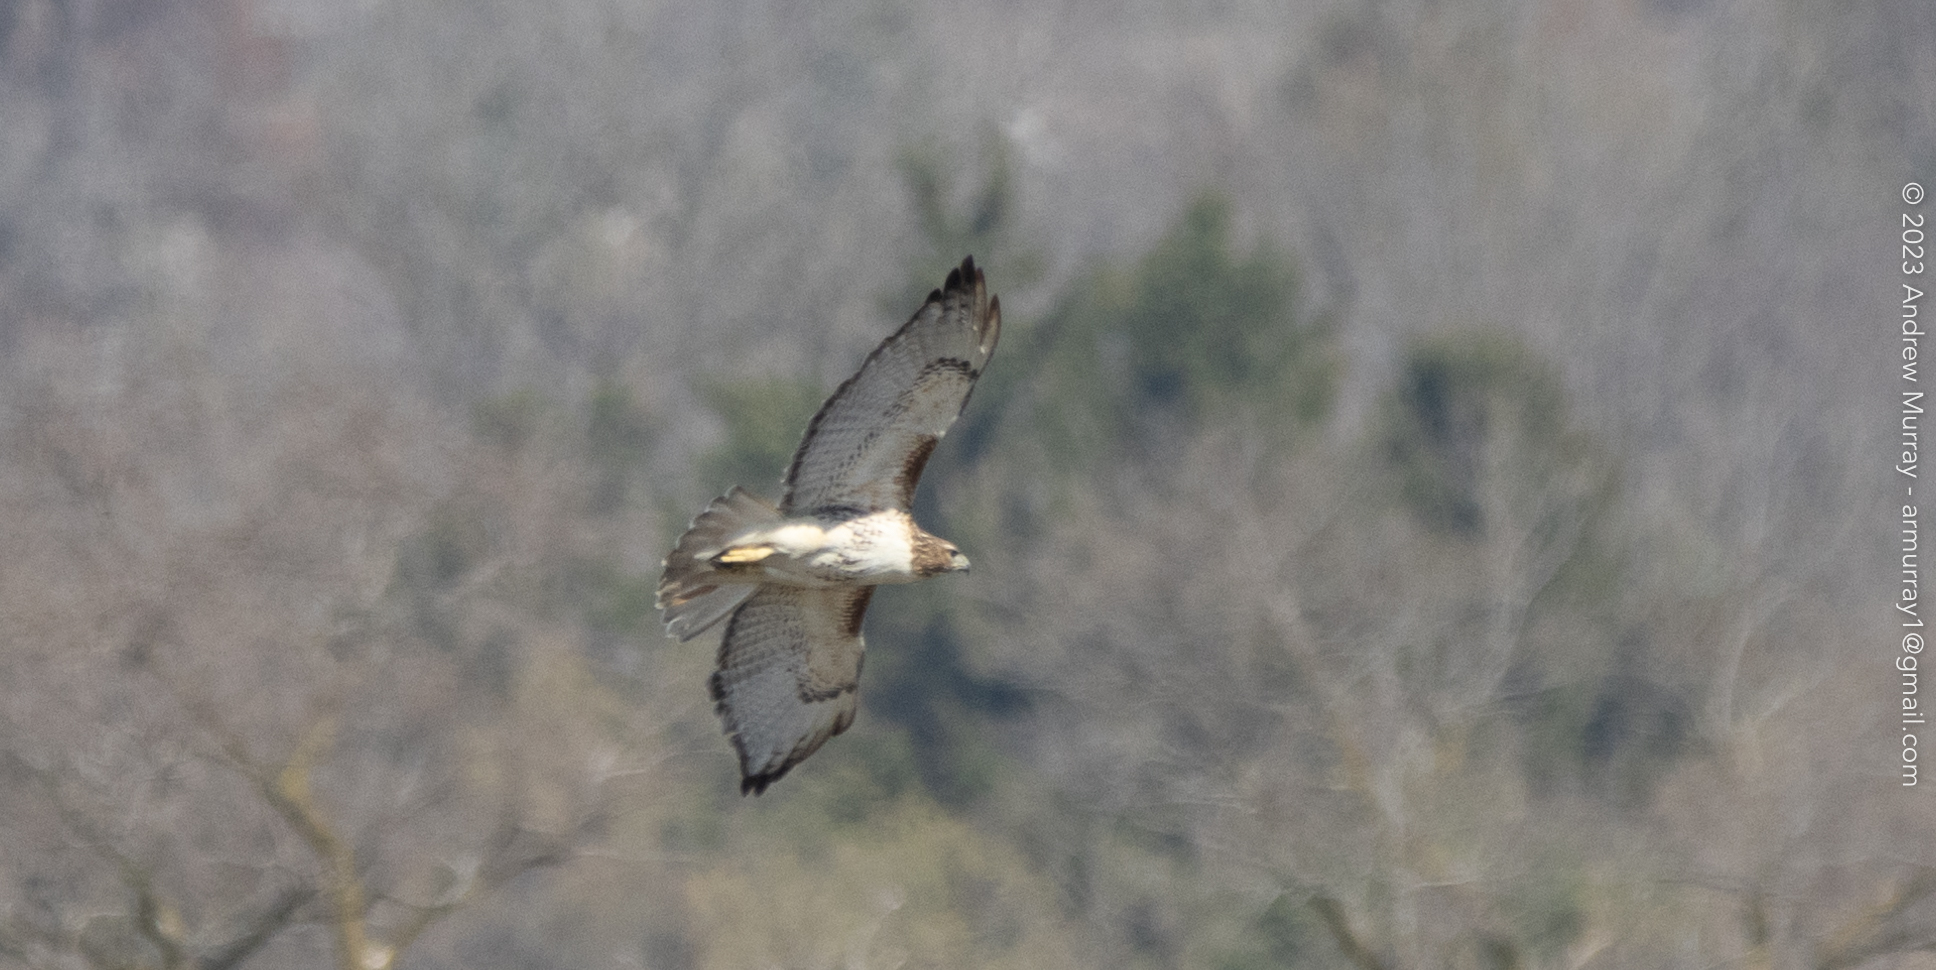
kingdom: Animalia
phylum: Chordata
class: Aves
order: Accipitriformes
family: Accipitridae
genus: Buteo
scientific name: Buteo jamaicensis
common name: Red-tailed hawk
